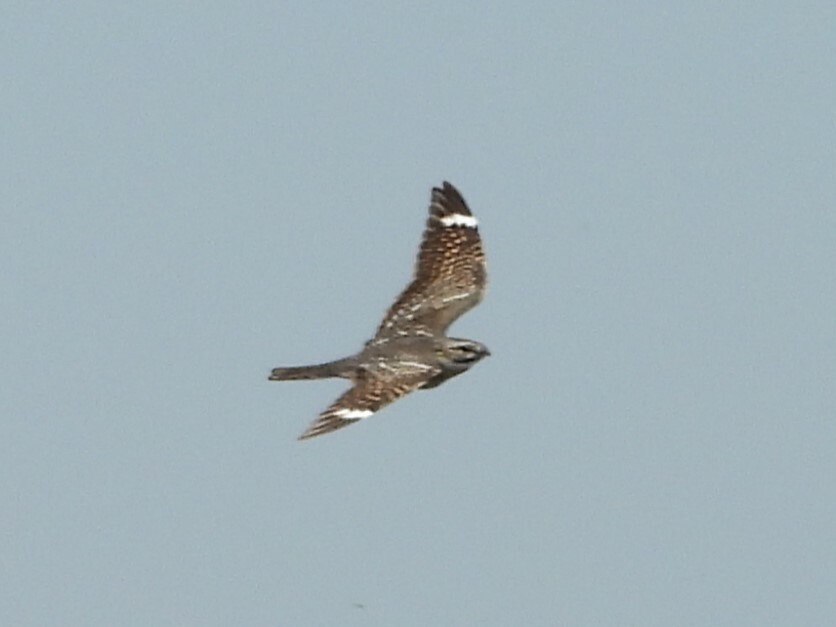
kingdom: Animalia
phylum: Chordata
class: Aves
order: Caprimulgiformes
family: Caprimulgidae
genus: Chordeiles
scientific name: Chordeiles acutipennis
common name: Lesser nighthawk
